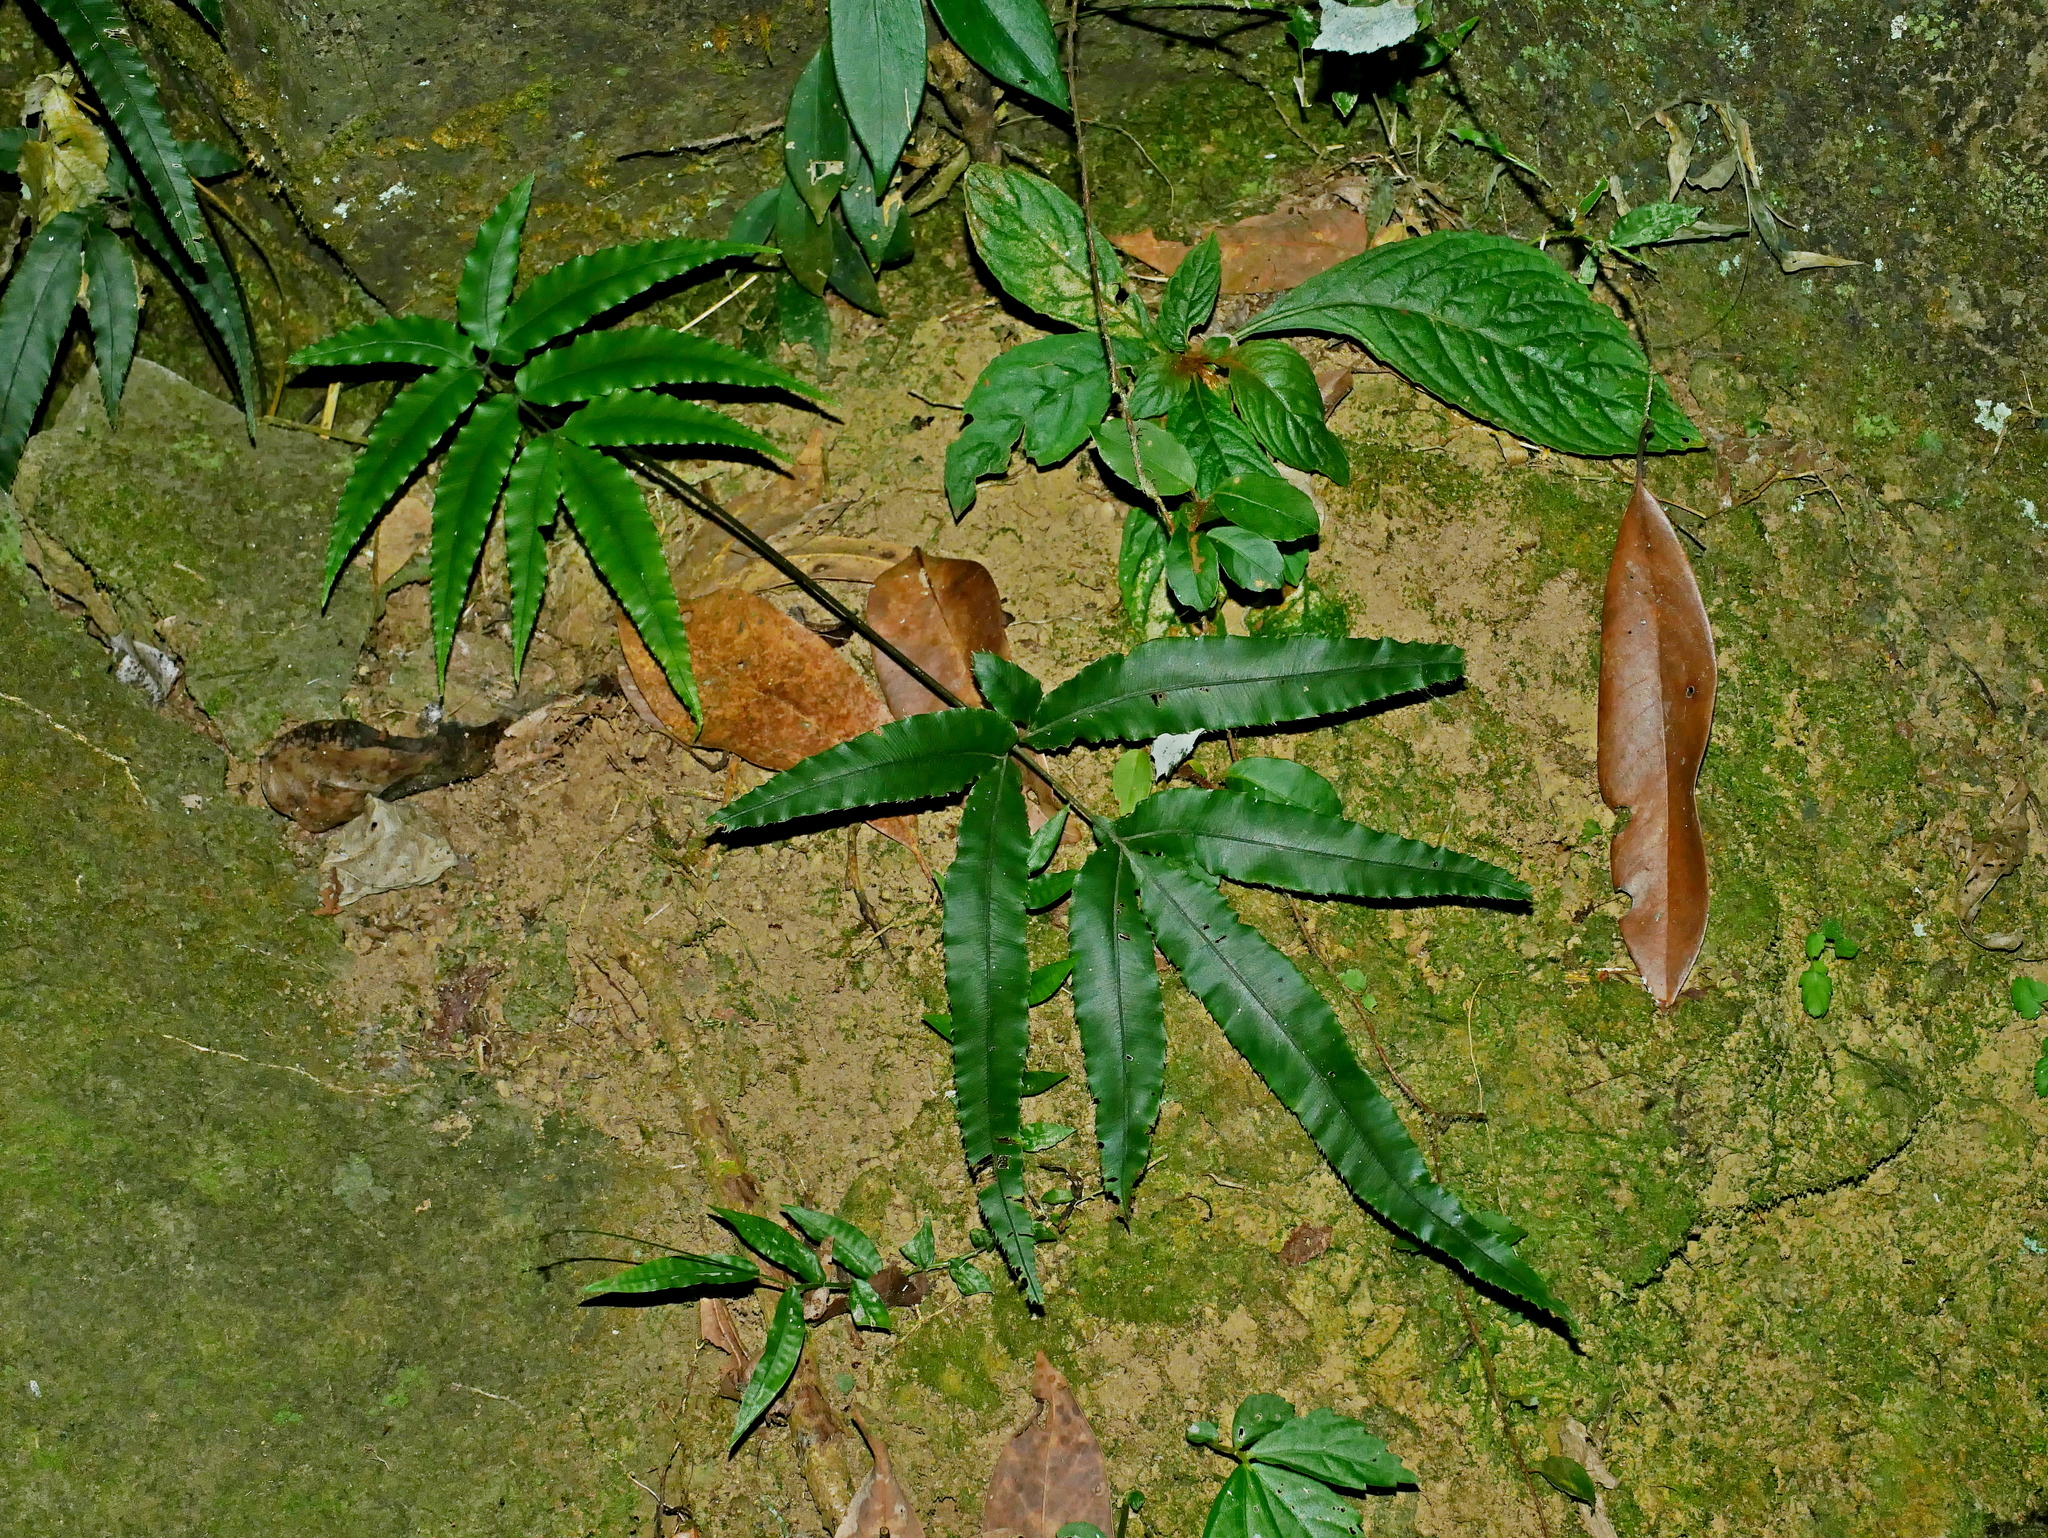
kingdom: Plantae
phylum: Tracheophyta
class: Polypodiopsida
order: Polypodiales
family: Pteridaceae
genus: Pteris
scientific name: Pteris rugosifolia
